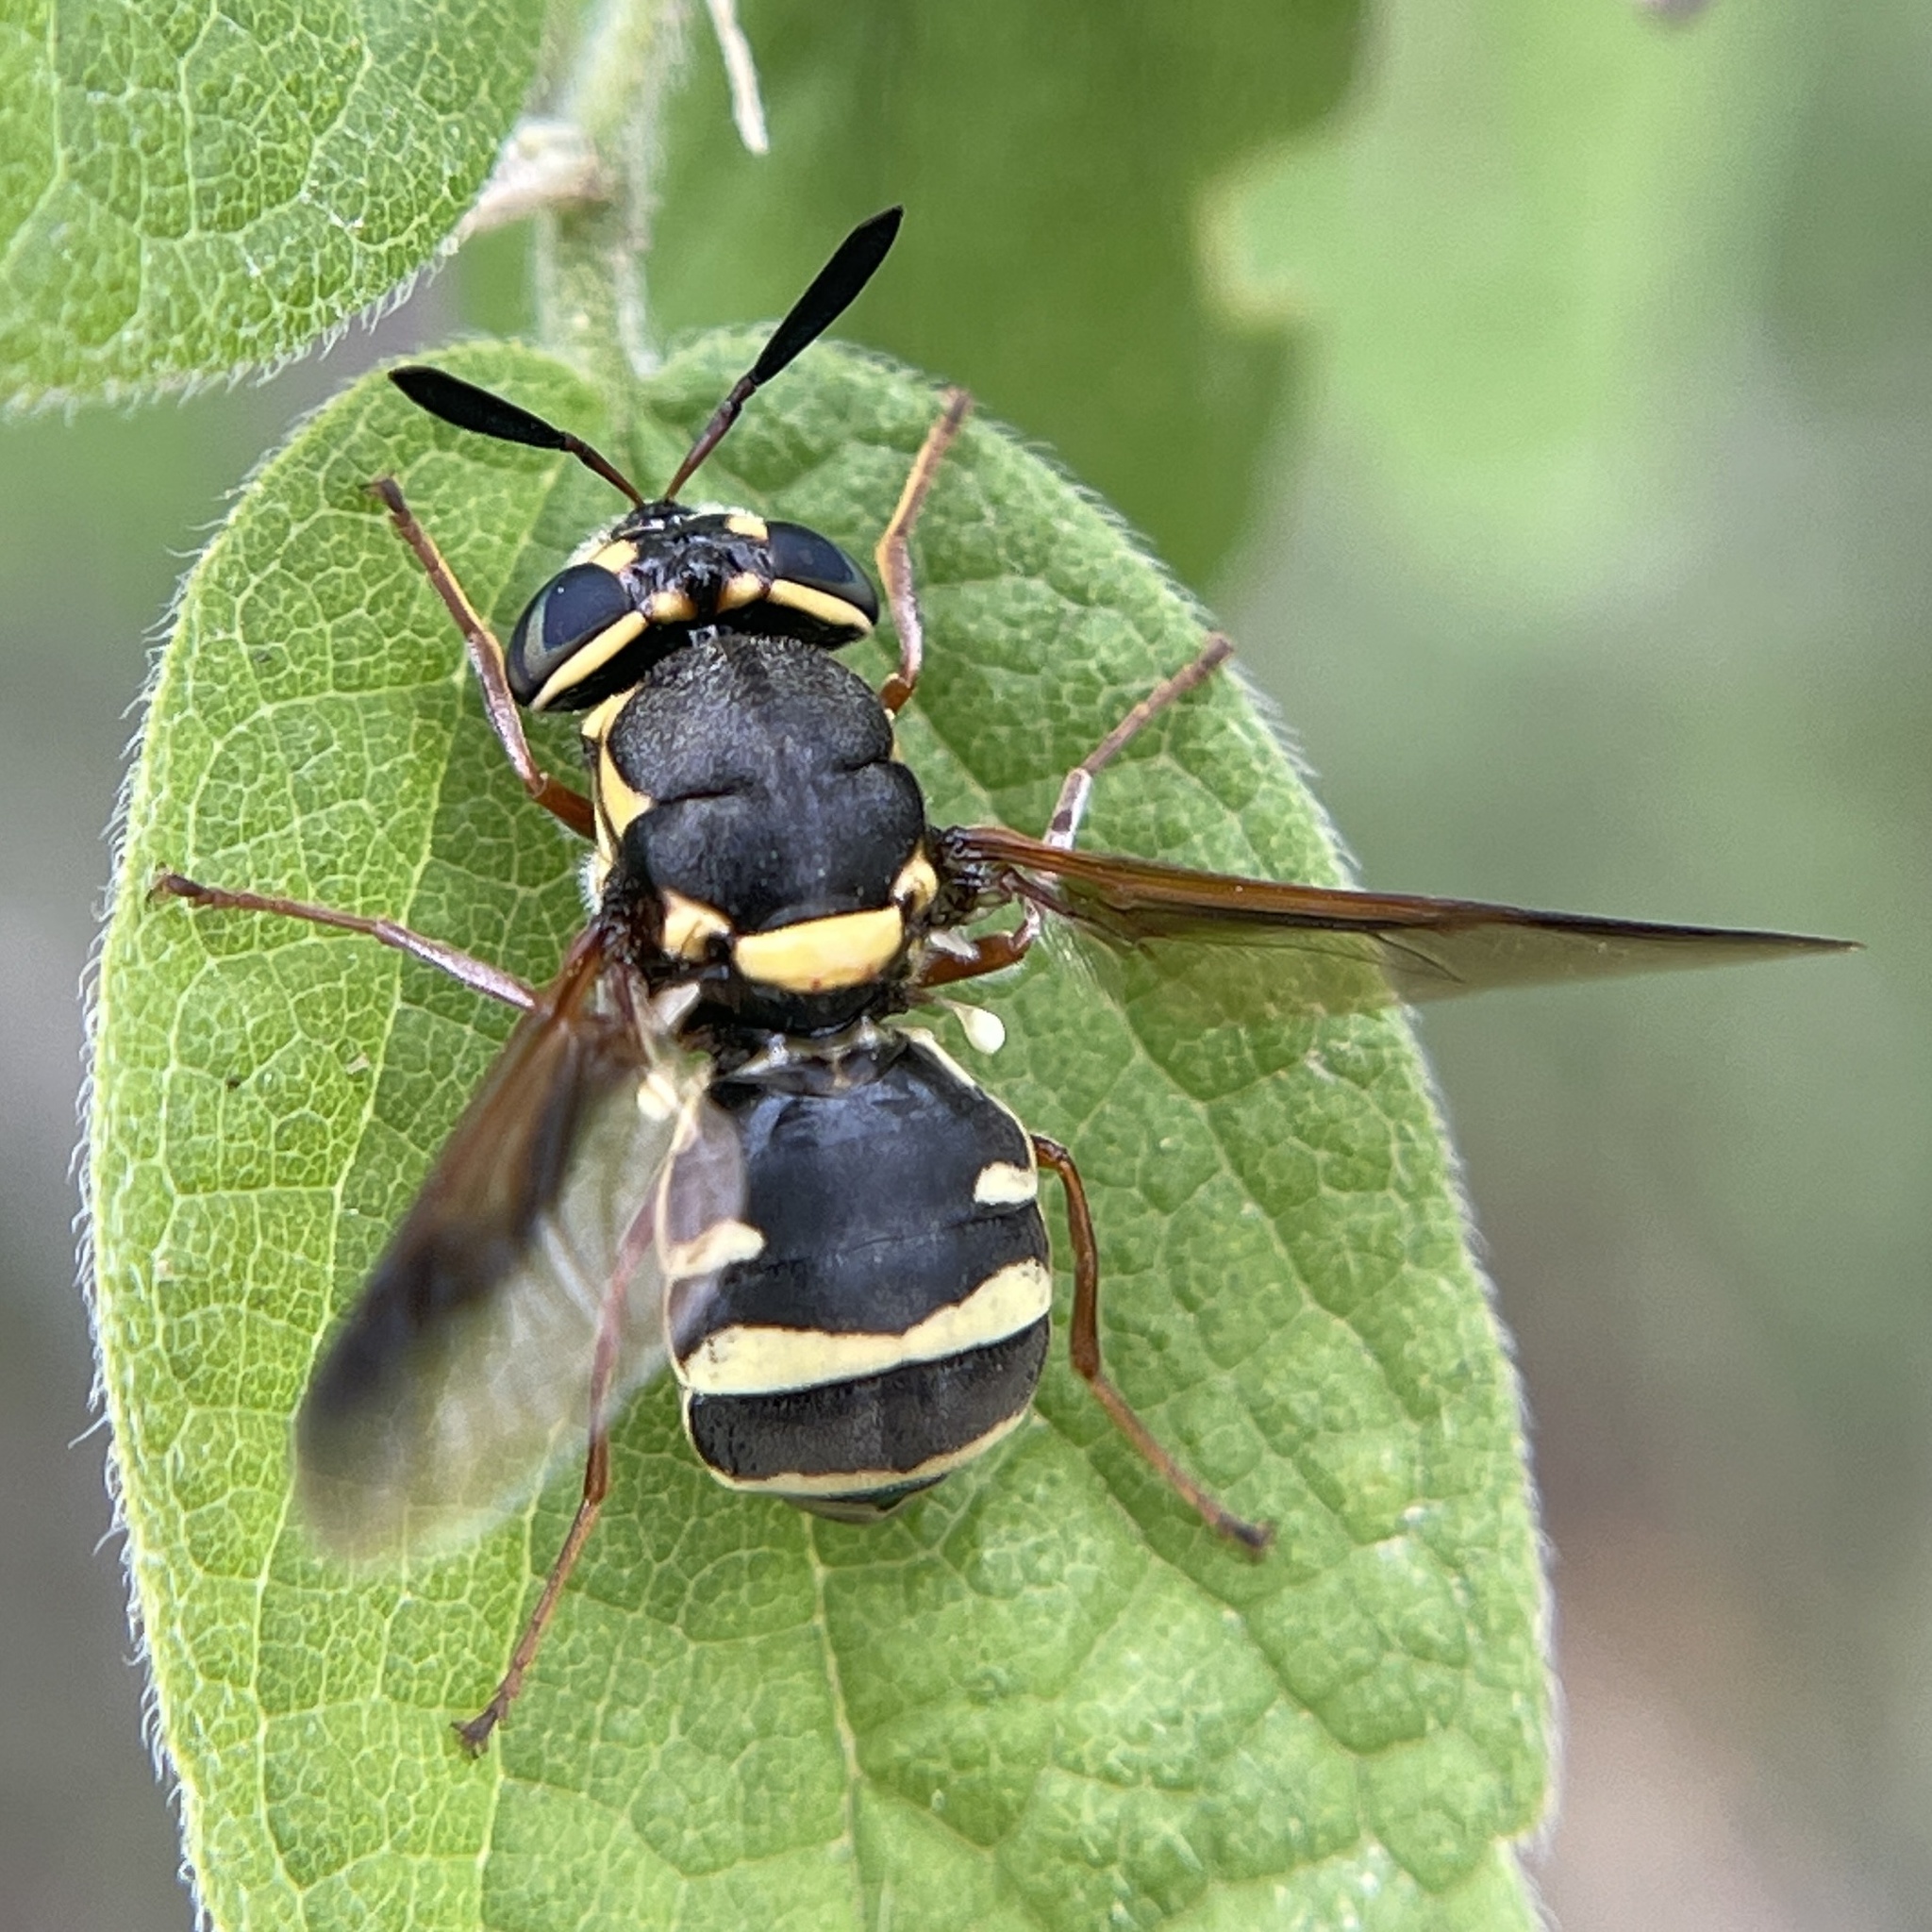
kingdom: Animalia
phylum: Arthropoda
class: Insecta
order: Diptera
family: Stratiomyidae
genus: Hoplitimyia
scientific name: Hoplitimyia constans
